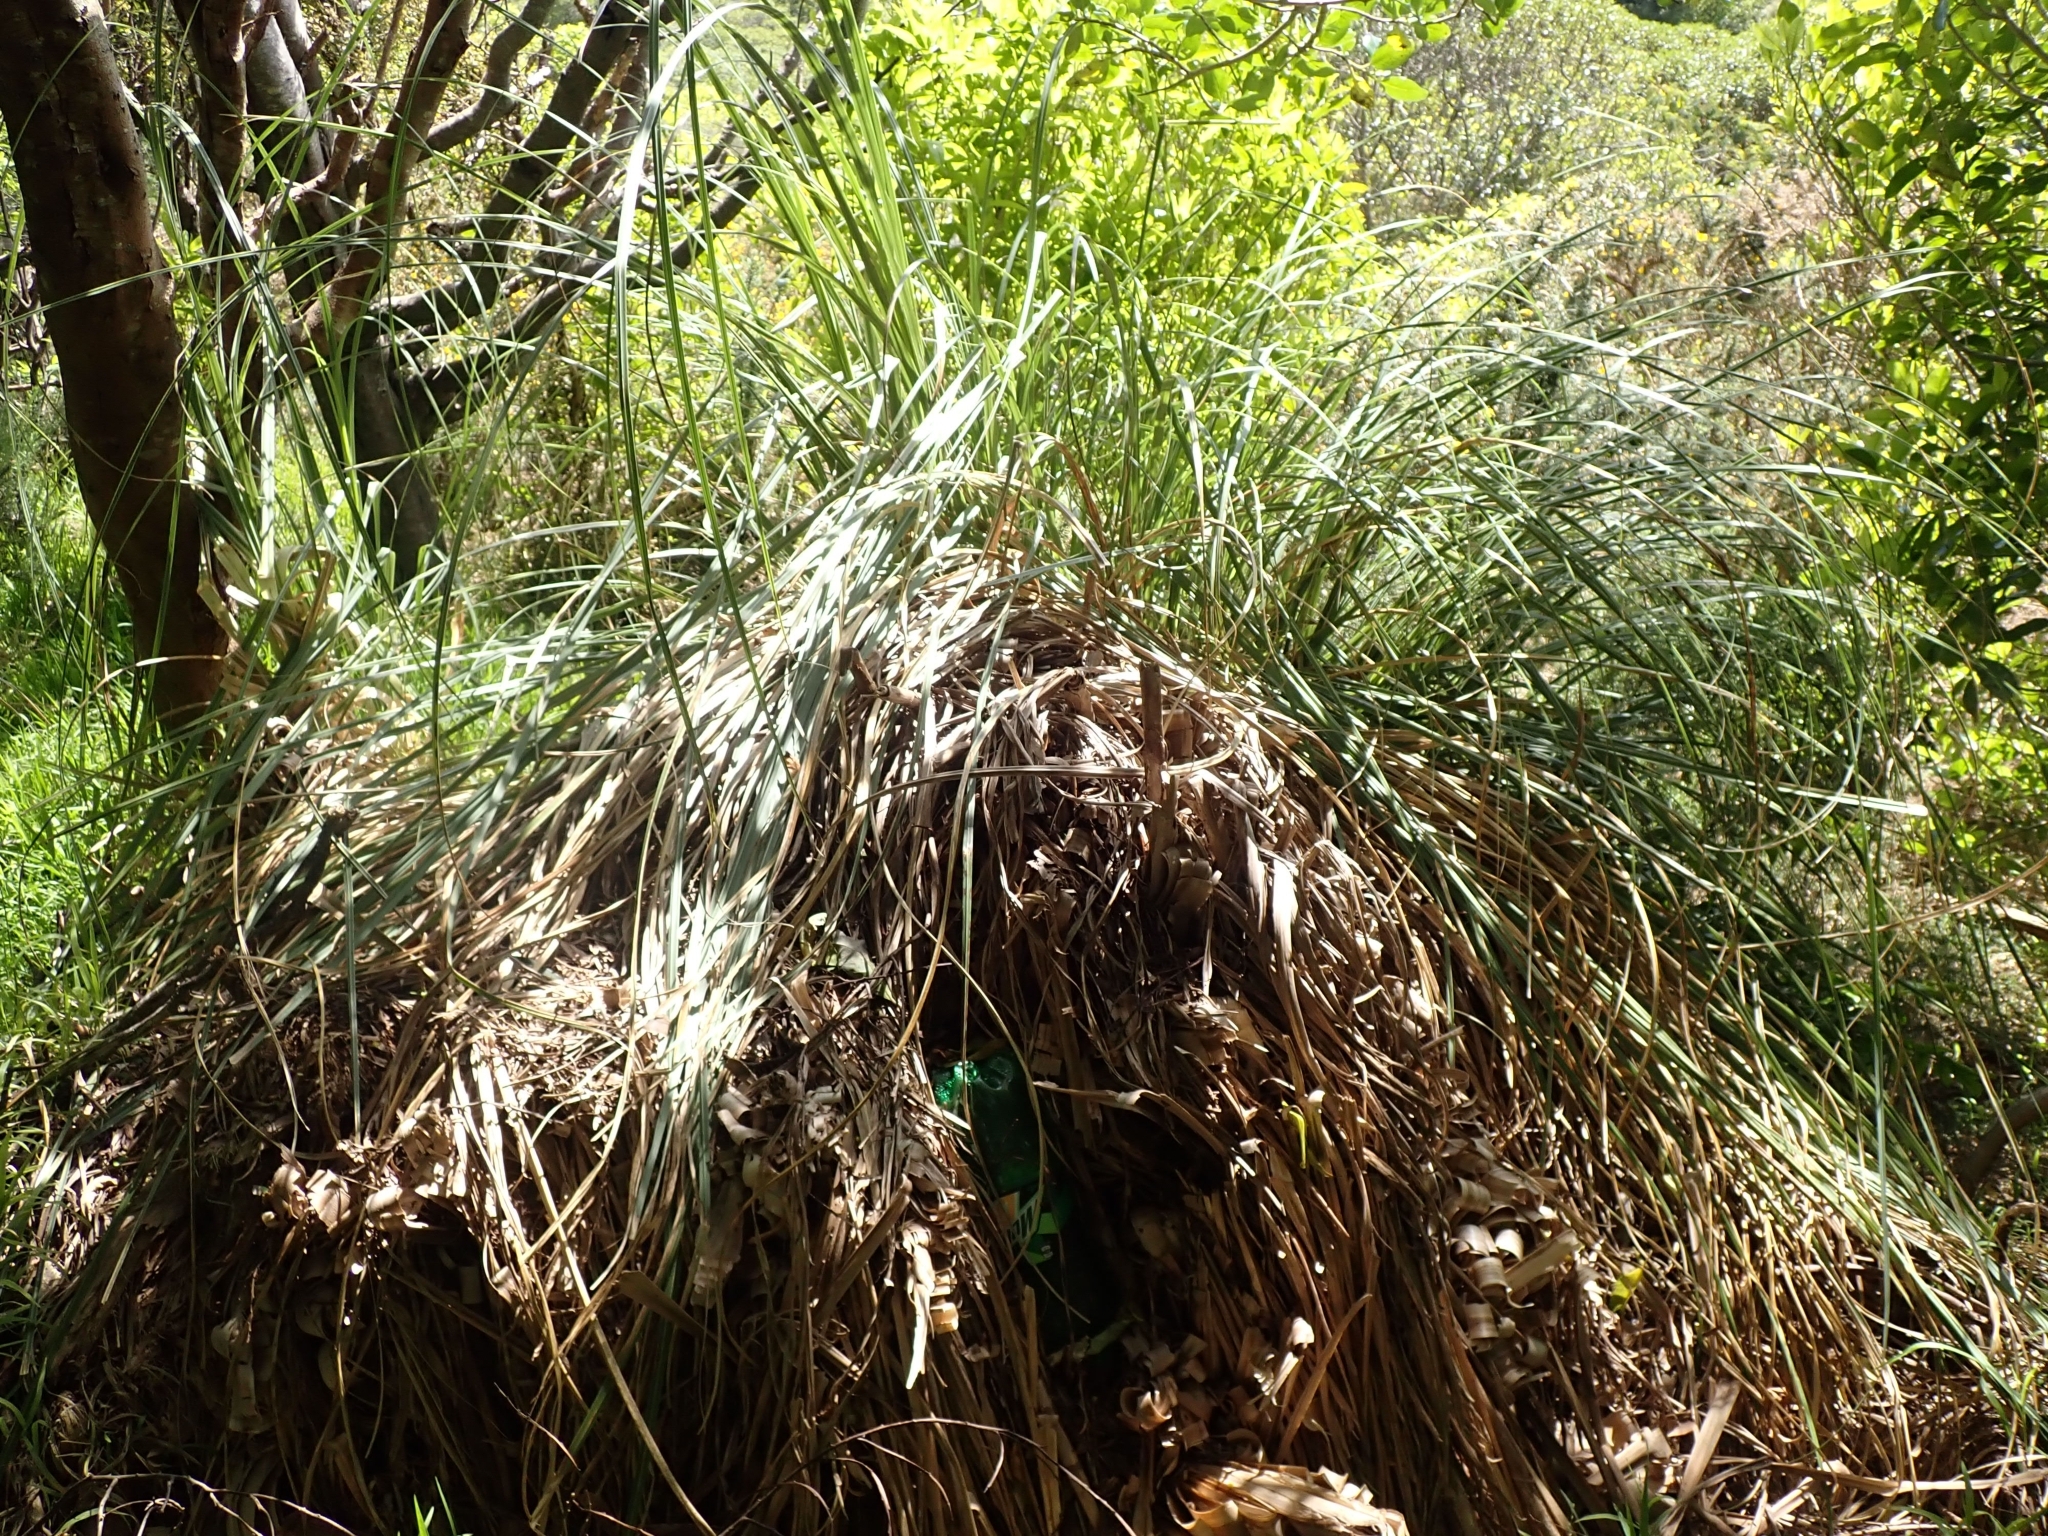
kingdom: Plantae
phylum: Tracheophyta
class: Liliopsida
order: Poales
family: Poaceae
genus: Cortaderia
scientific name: Cortaderia selloana
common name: Uruguayan pampas grass
